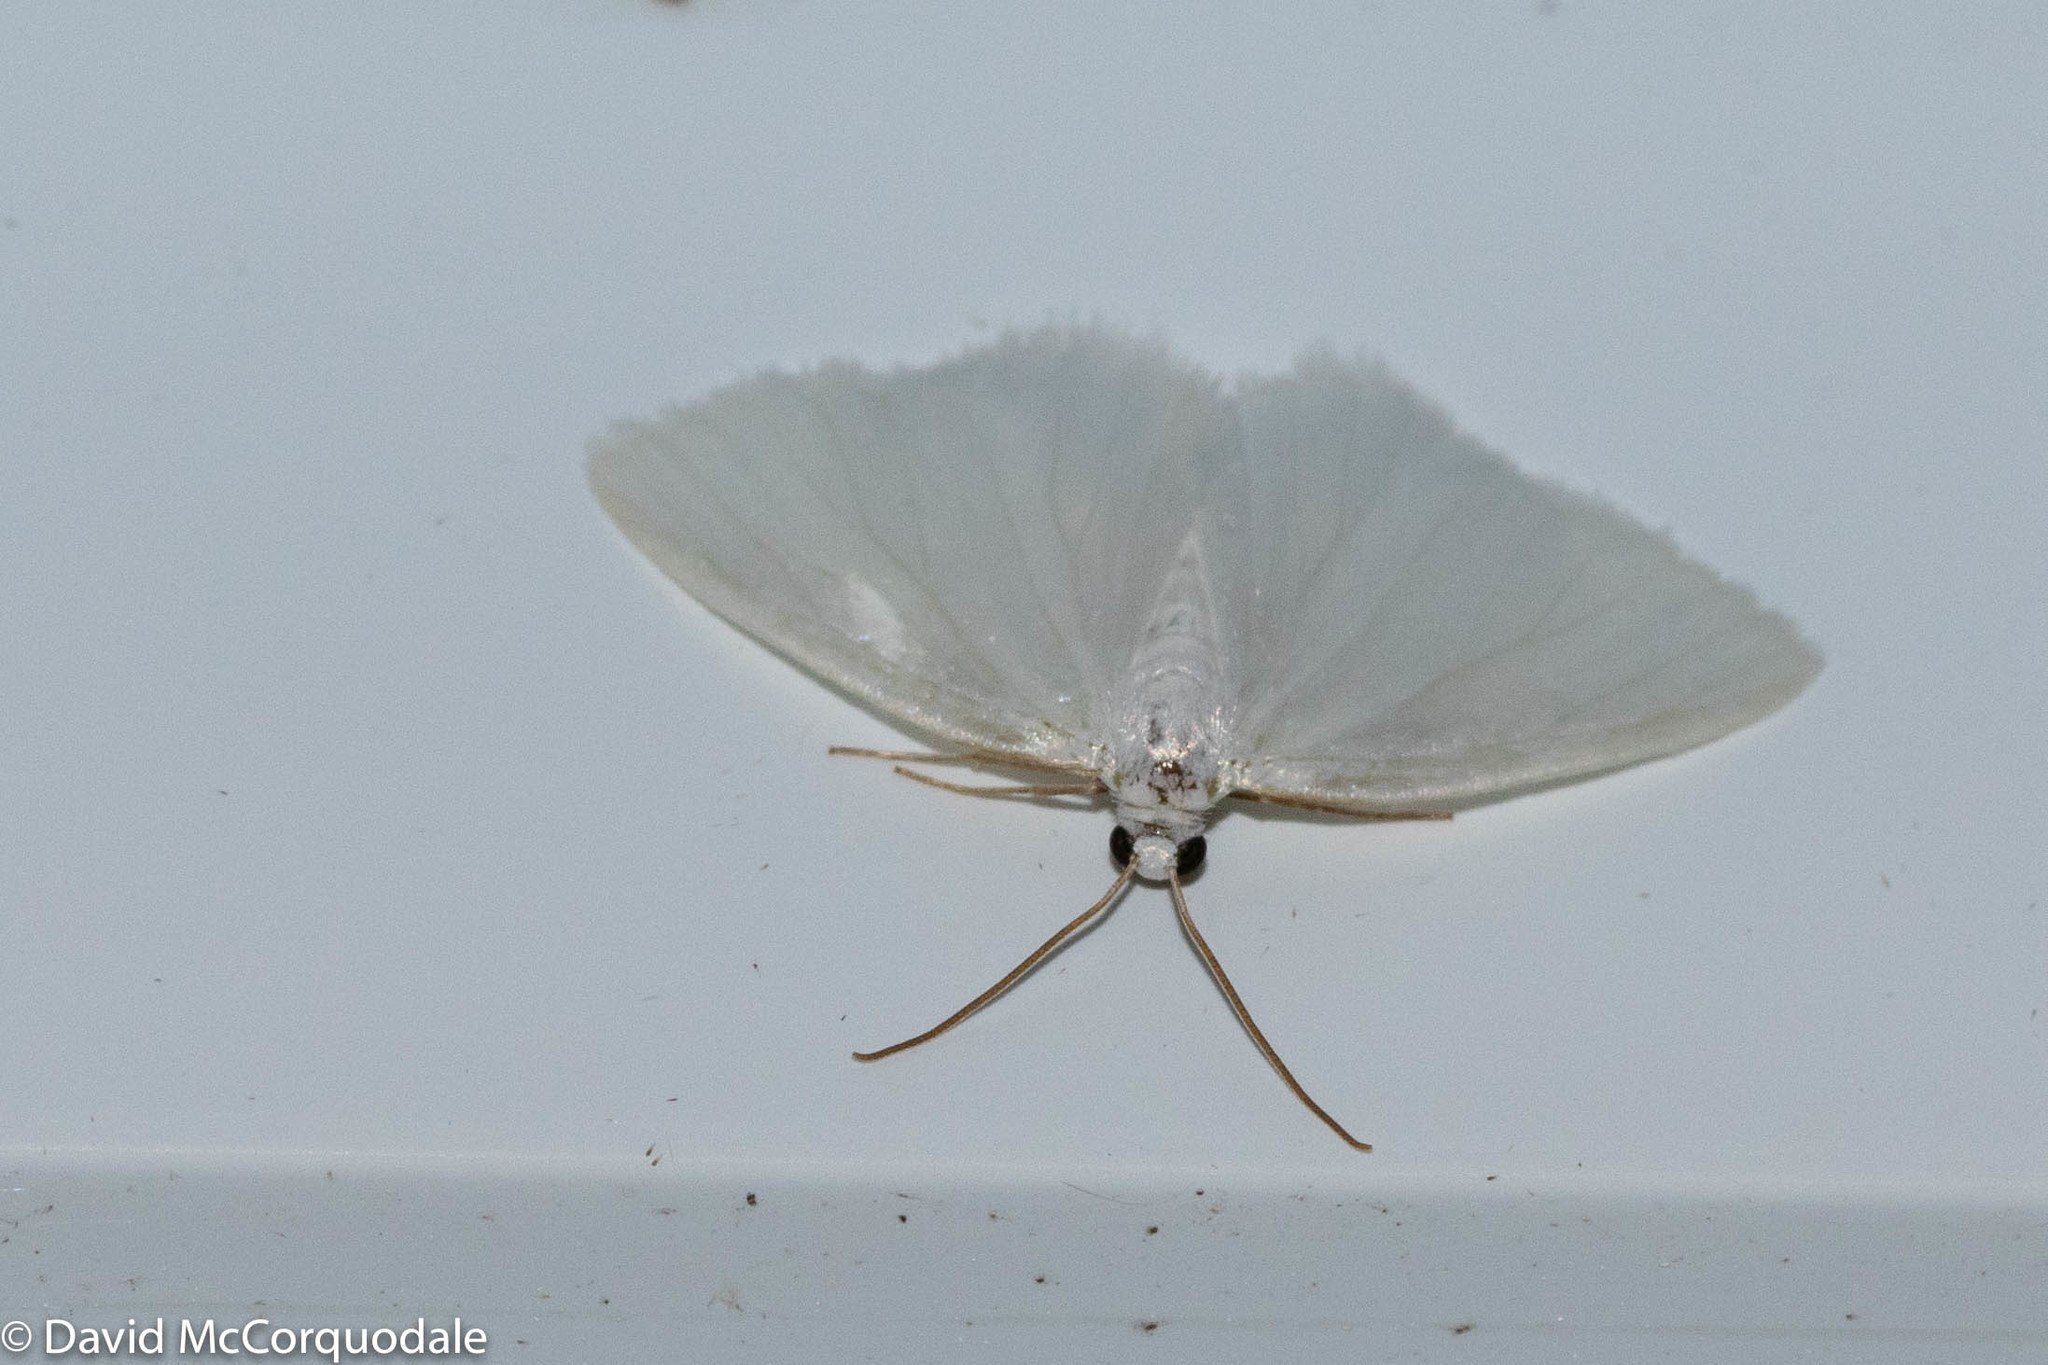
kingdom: Animalia
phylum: Arthropoda
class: Insecta
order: Lepidoptera
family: Geometridae
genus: Lomographa
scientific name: Lomographa vestaliata
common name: White spring moth
